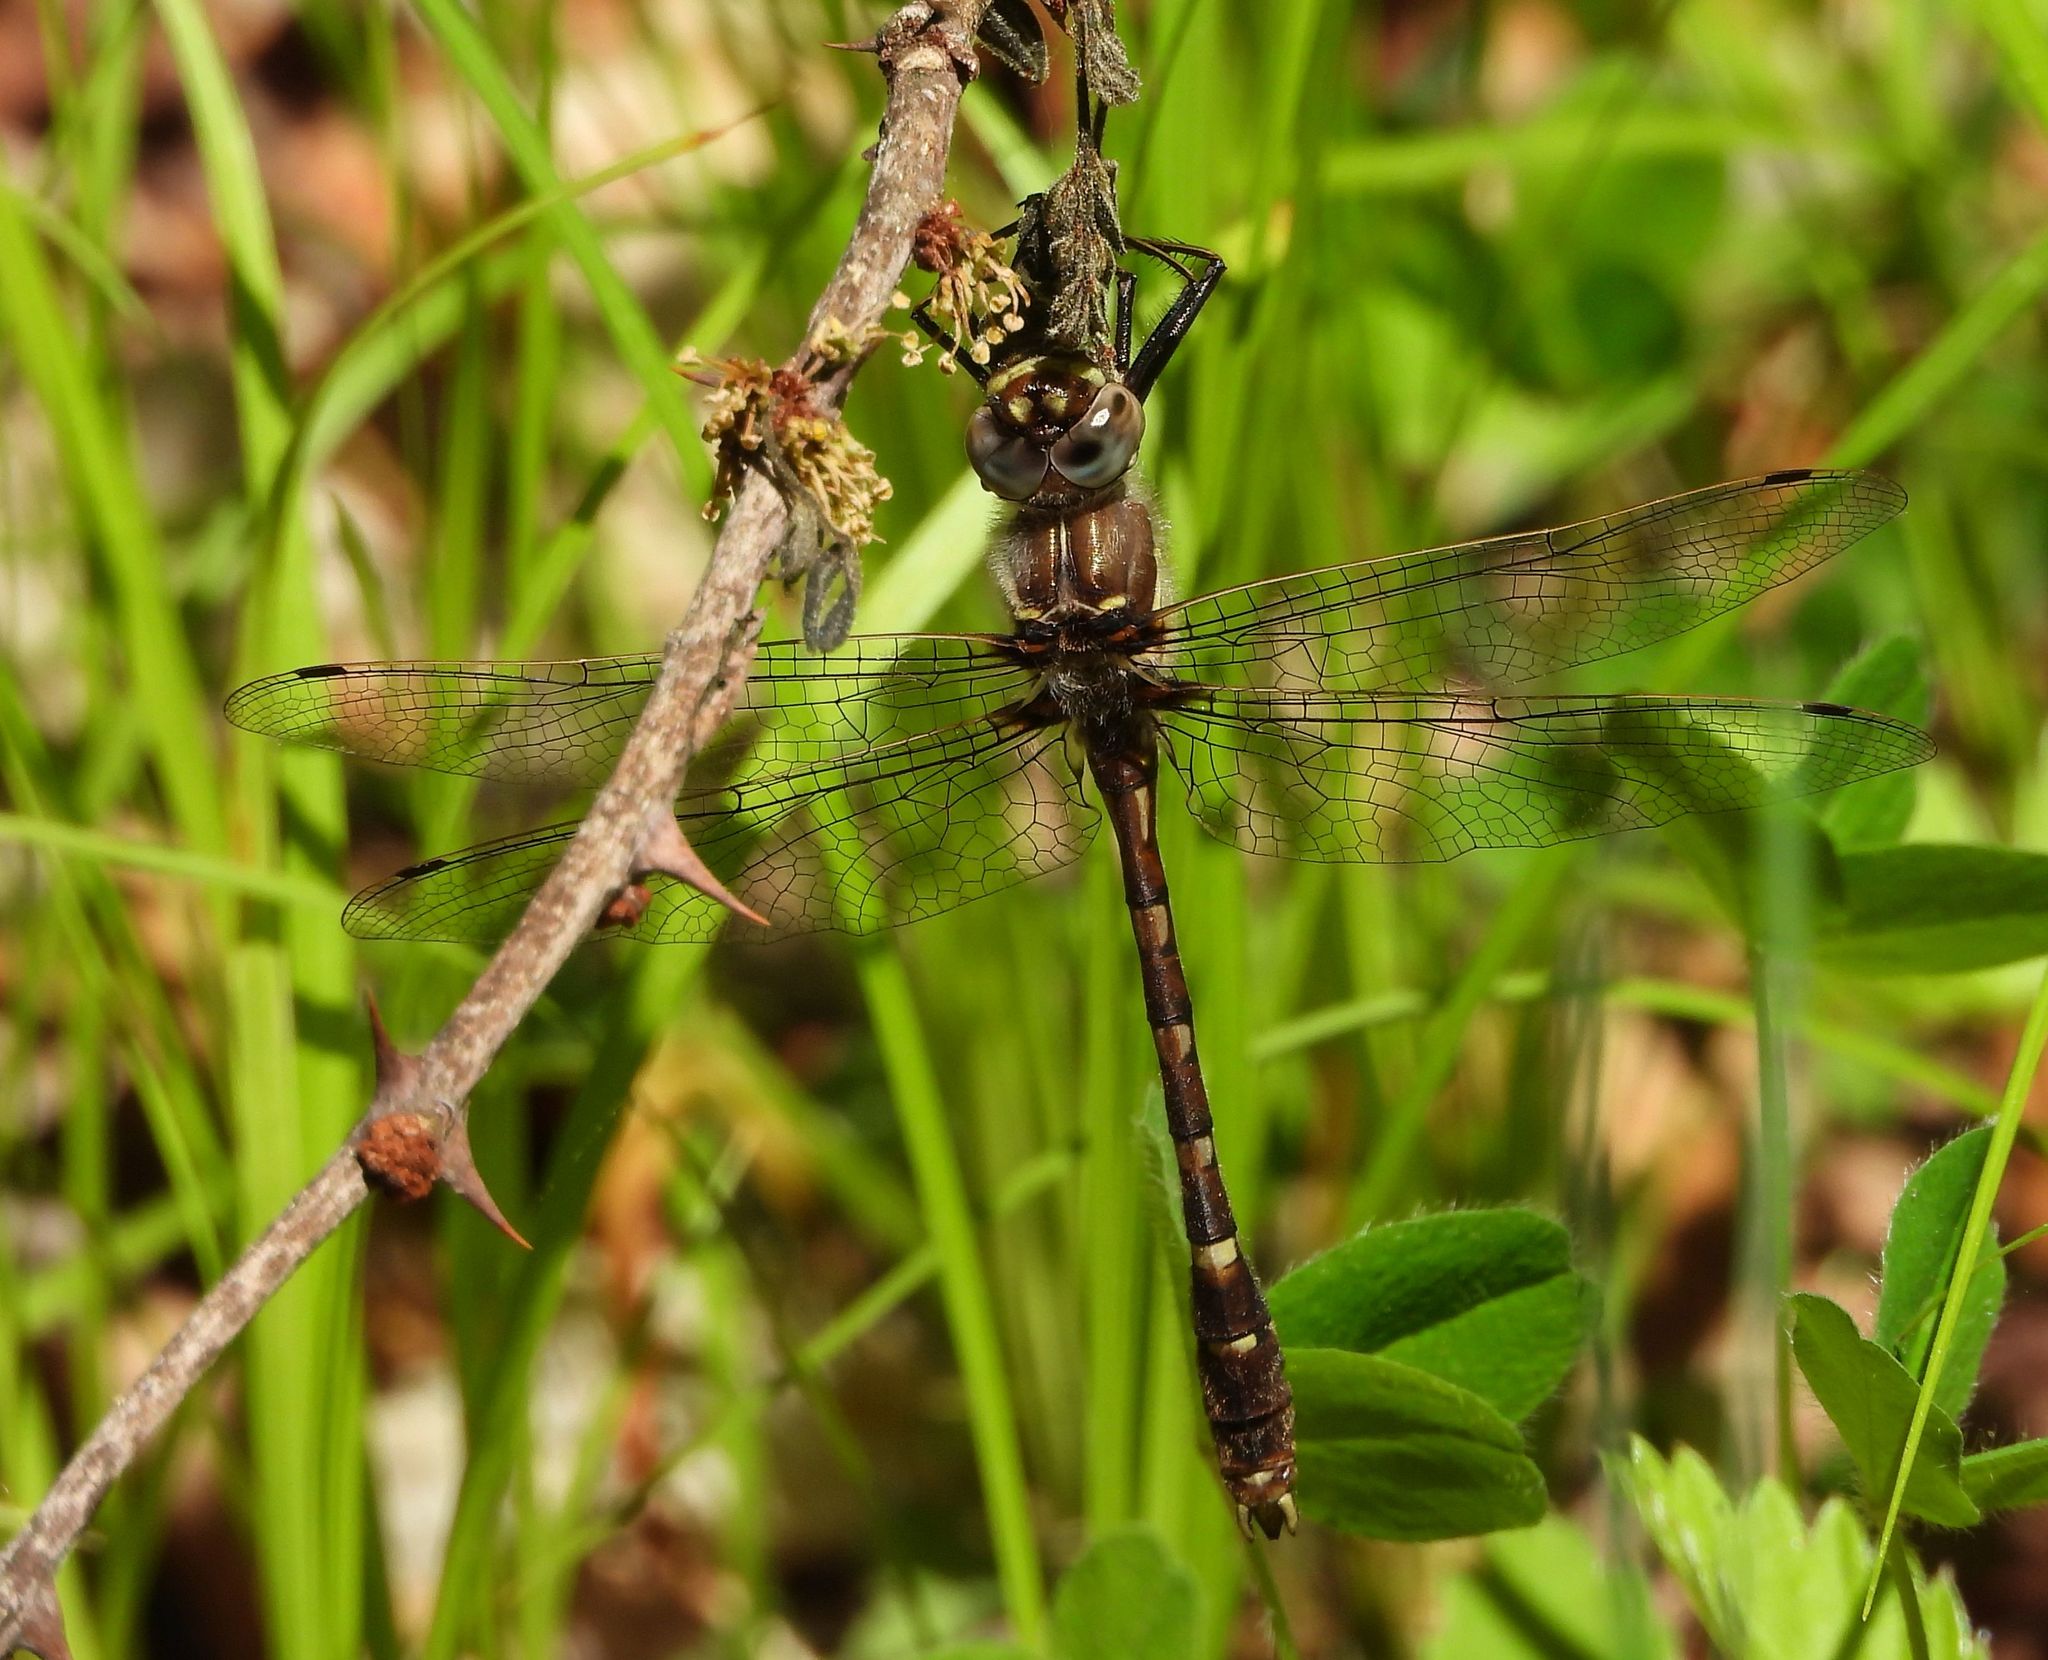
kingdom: Animalia
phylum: Arthropoda
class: Insecta
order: Odonata
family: Macromiidae
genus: Didymops
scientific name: Didymops transversa
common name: Stream cruiser
